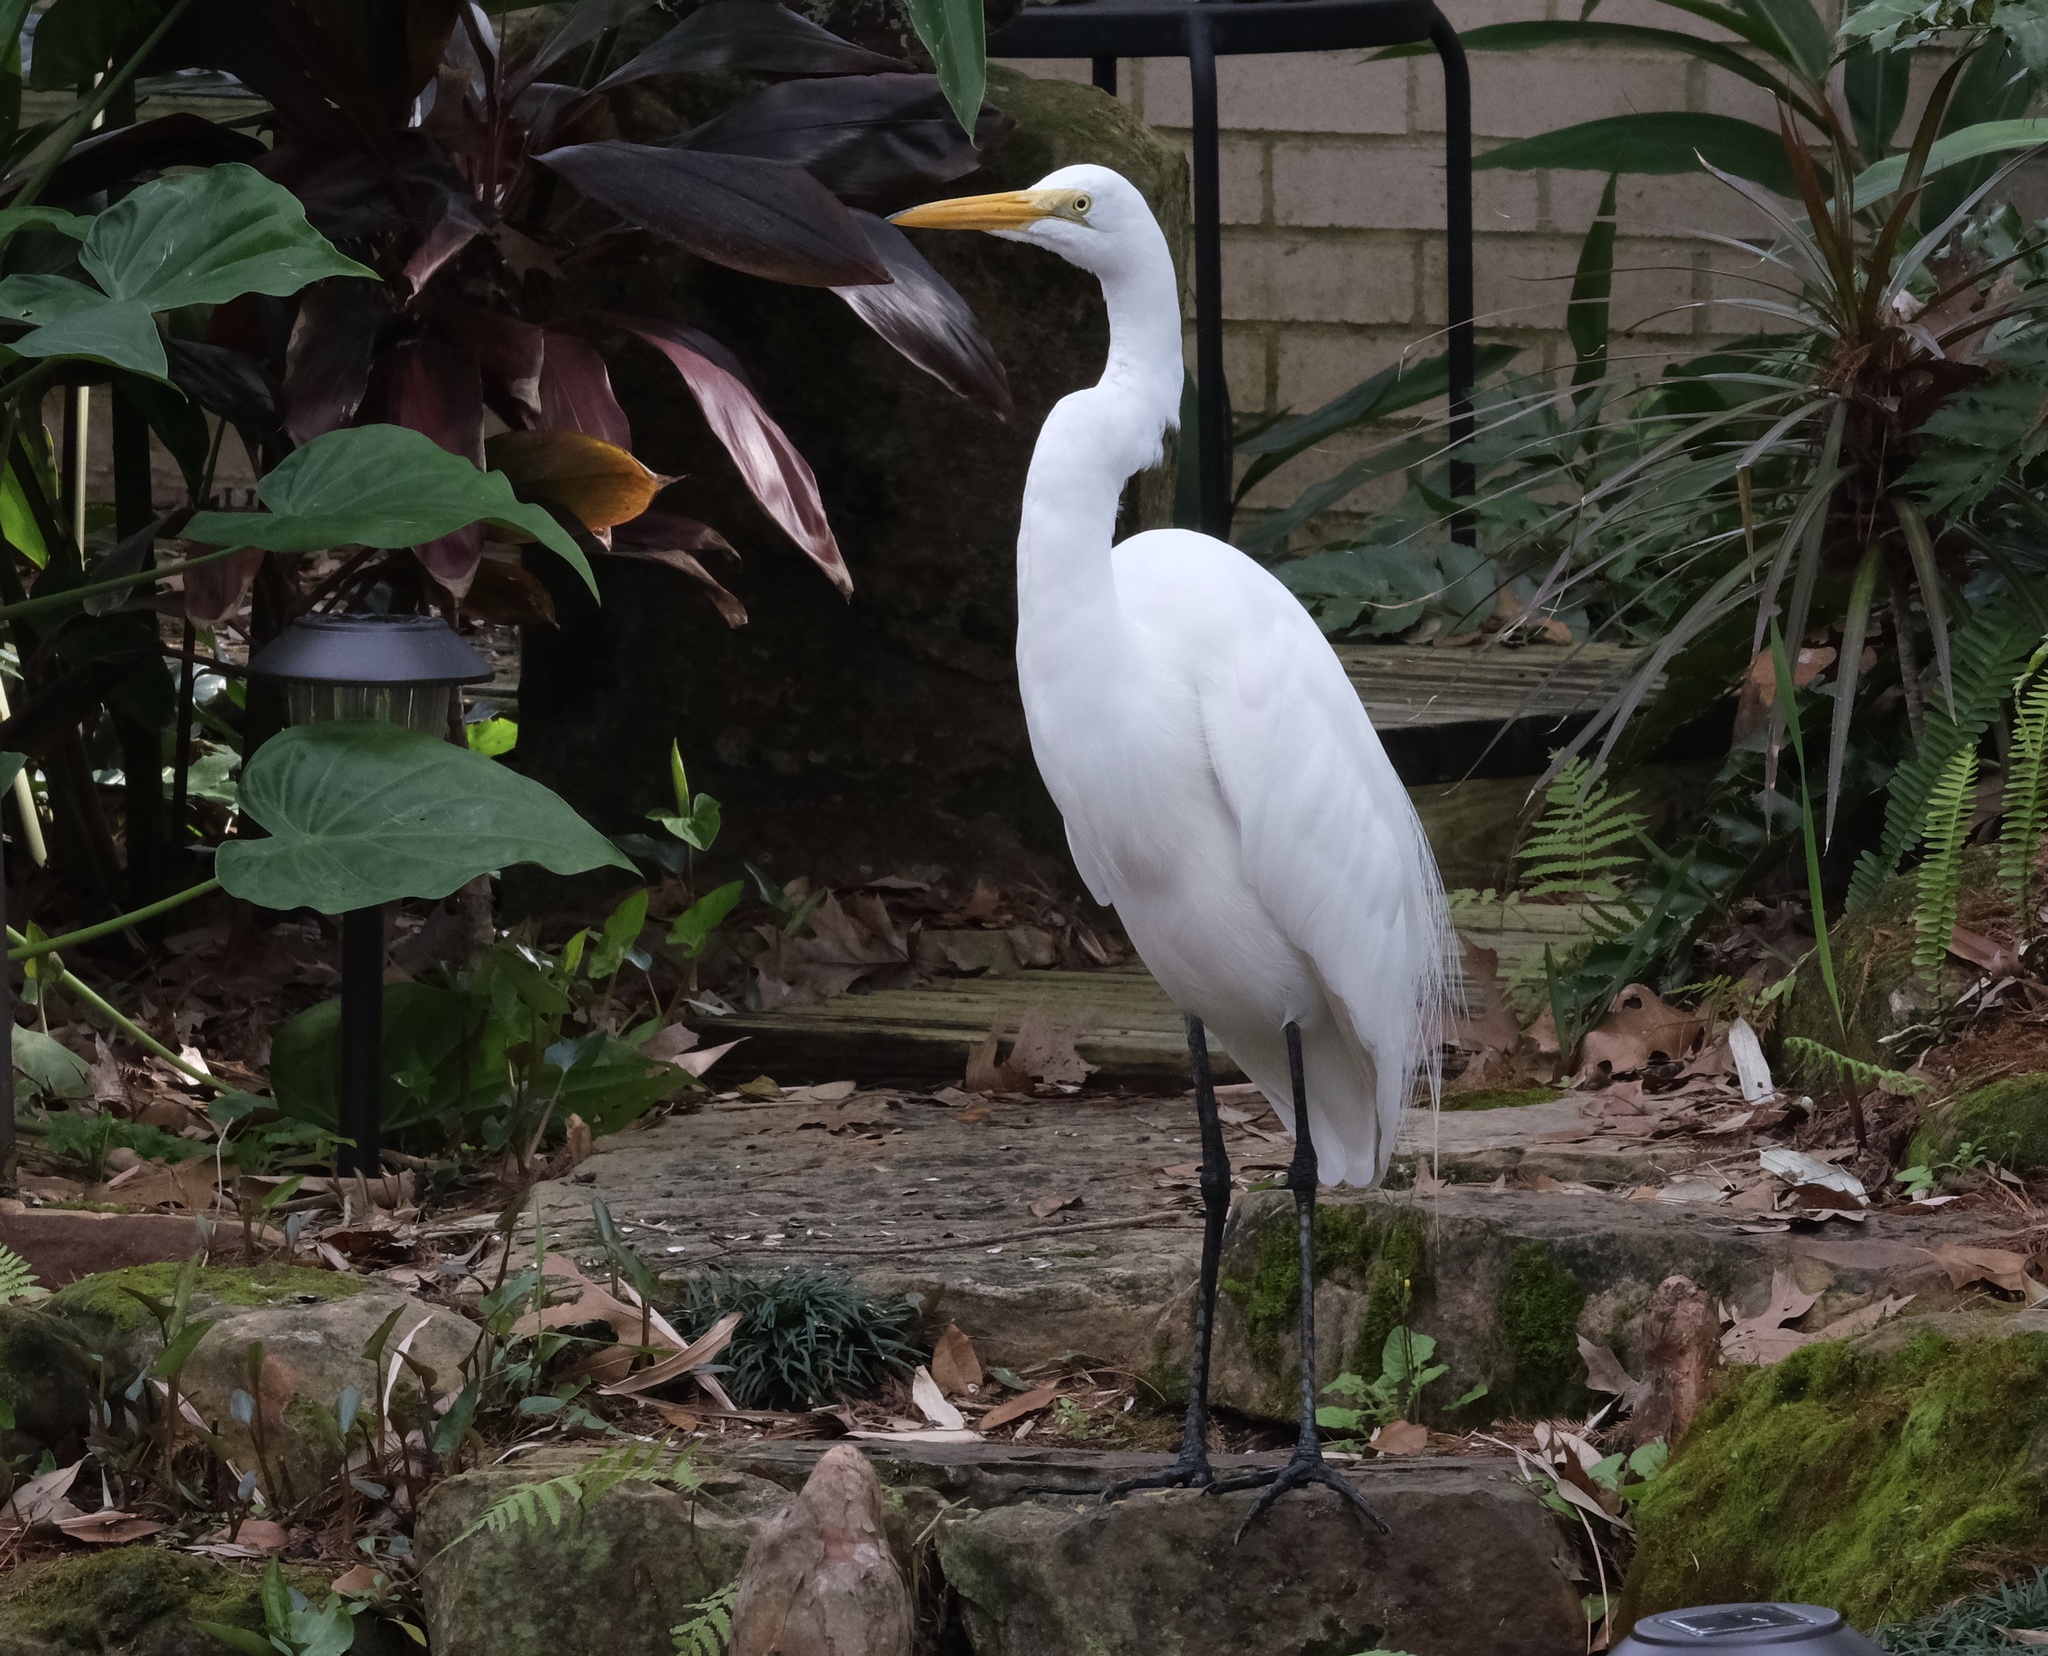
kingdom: Animalia
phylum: Chordata
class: Aves
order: Pelecaniformes
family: Ardeidae
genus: Ardea
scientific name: Ardea alba
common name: Great egret
